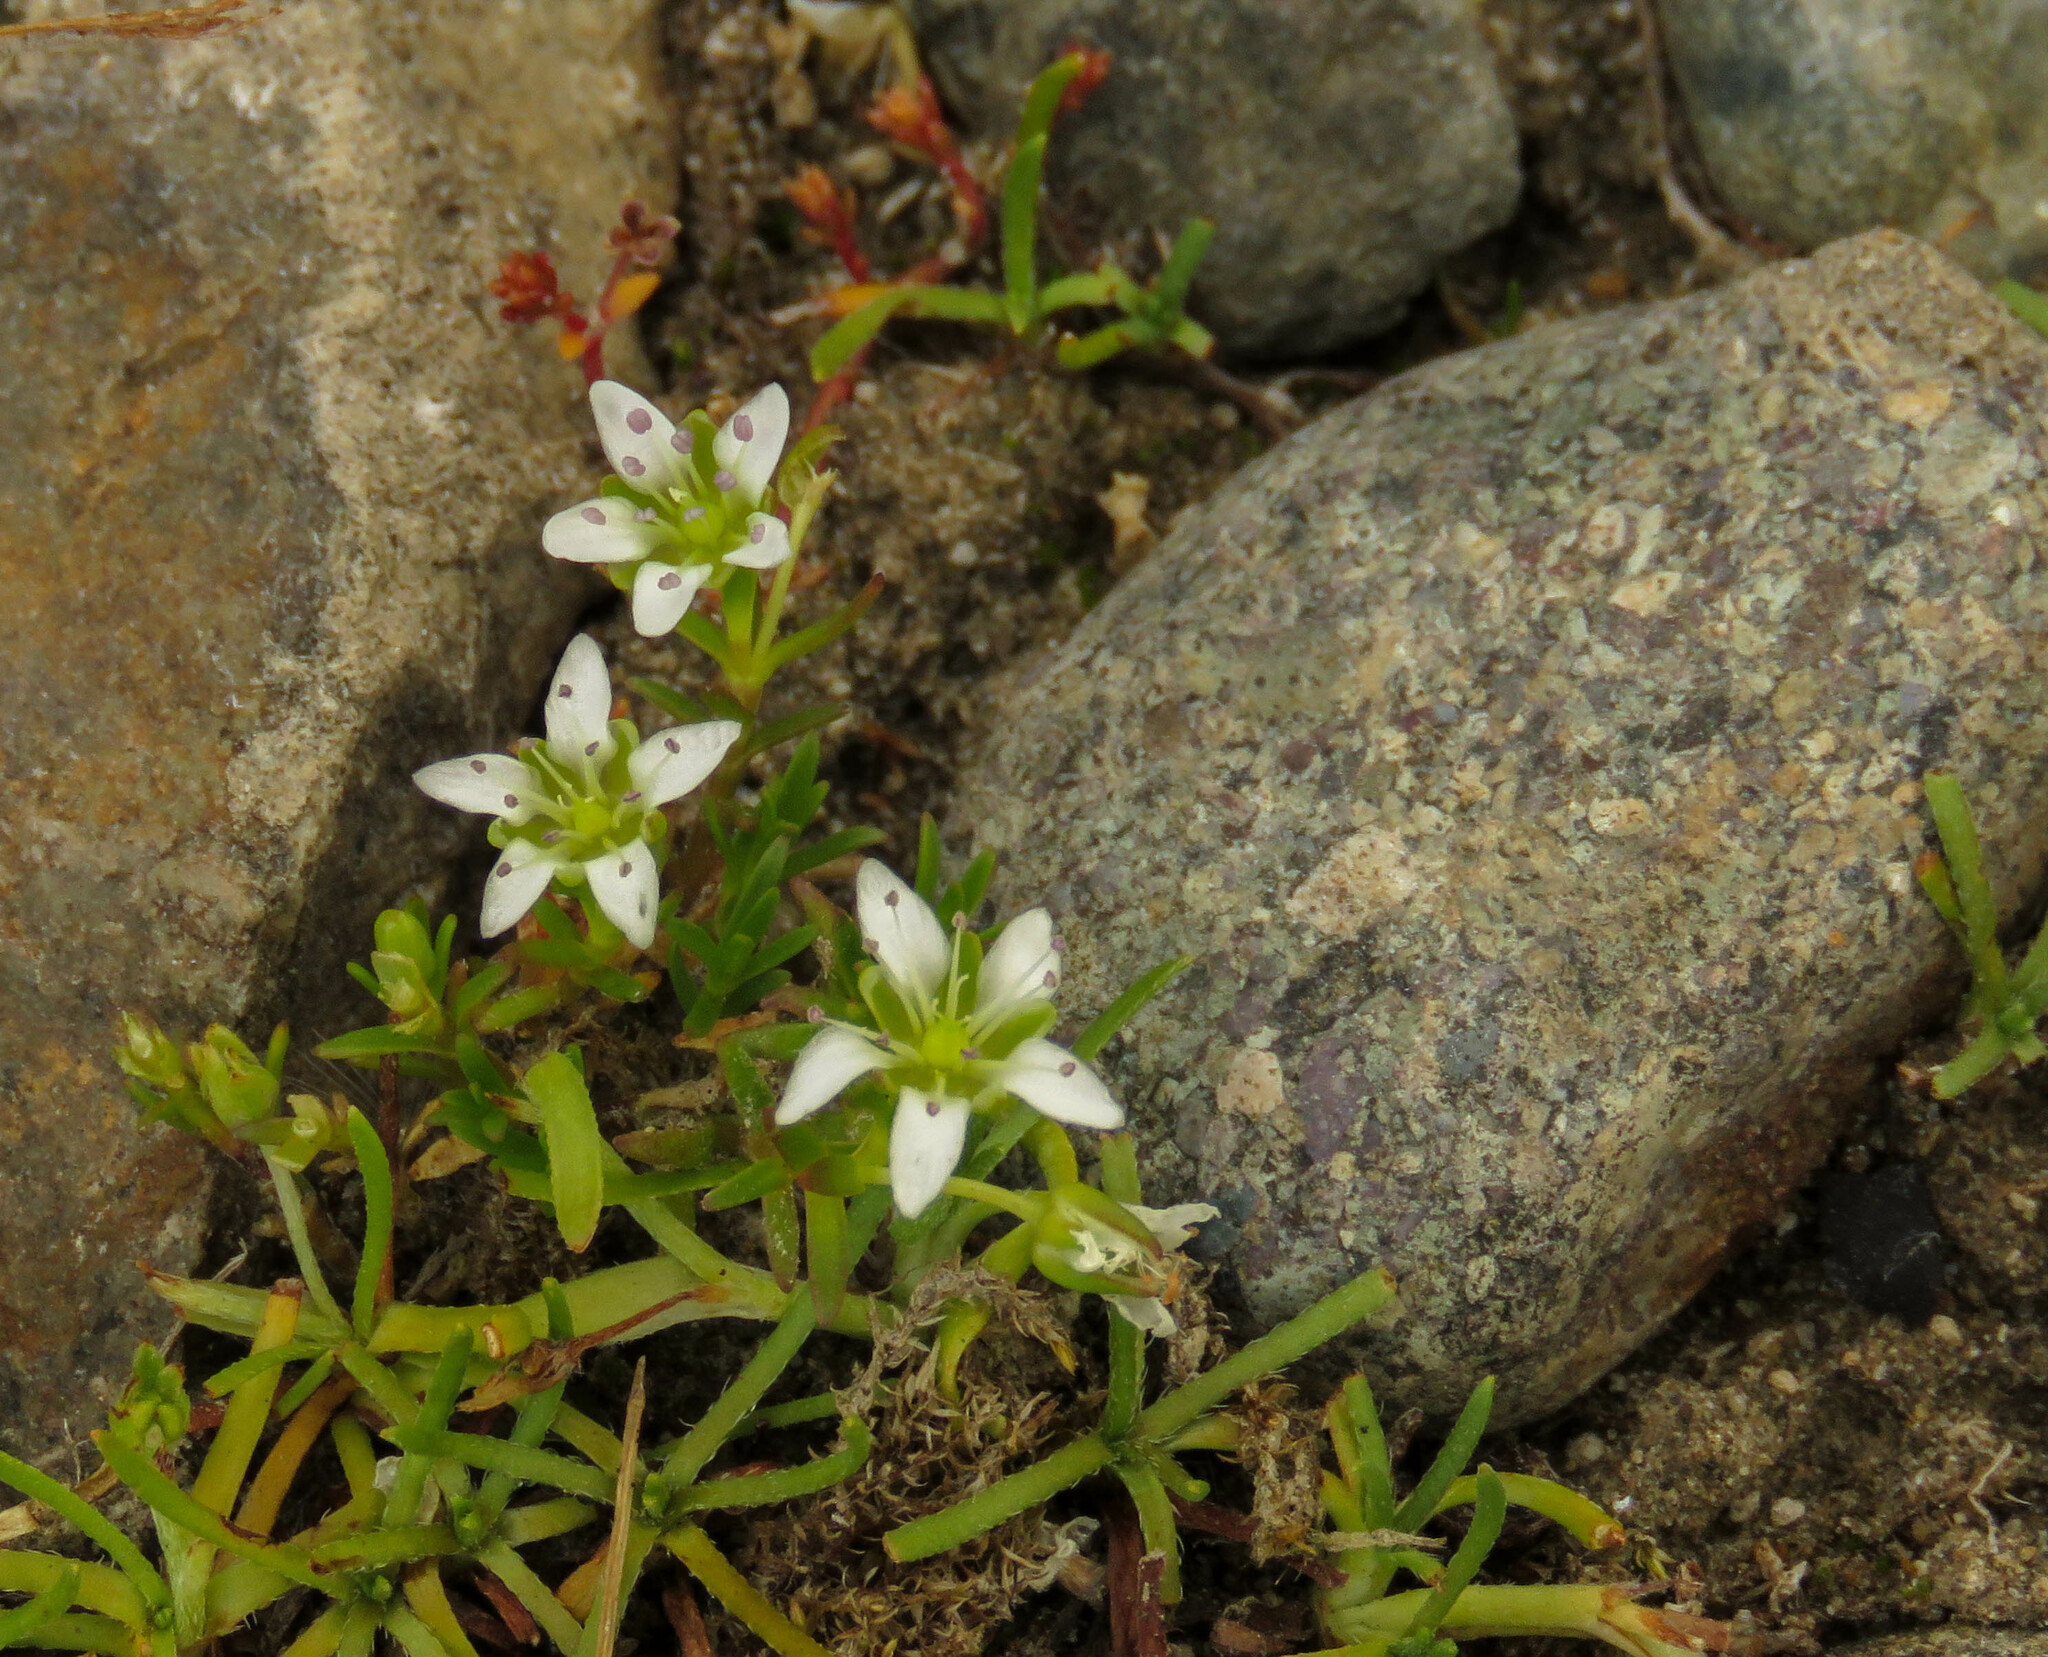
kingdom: Plantae
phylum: Tracheophyta
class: Magnoliopsida
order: Caryophyllales
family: Caryophyllaceae
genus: Arenaria
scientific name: Arenaria serpens
